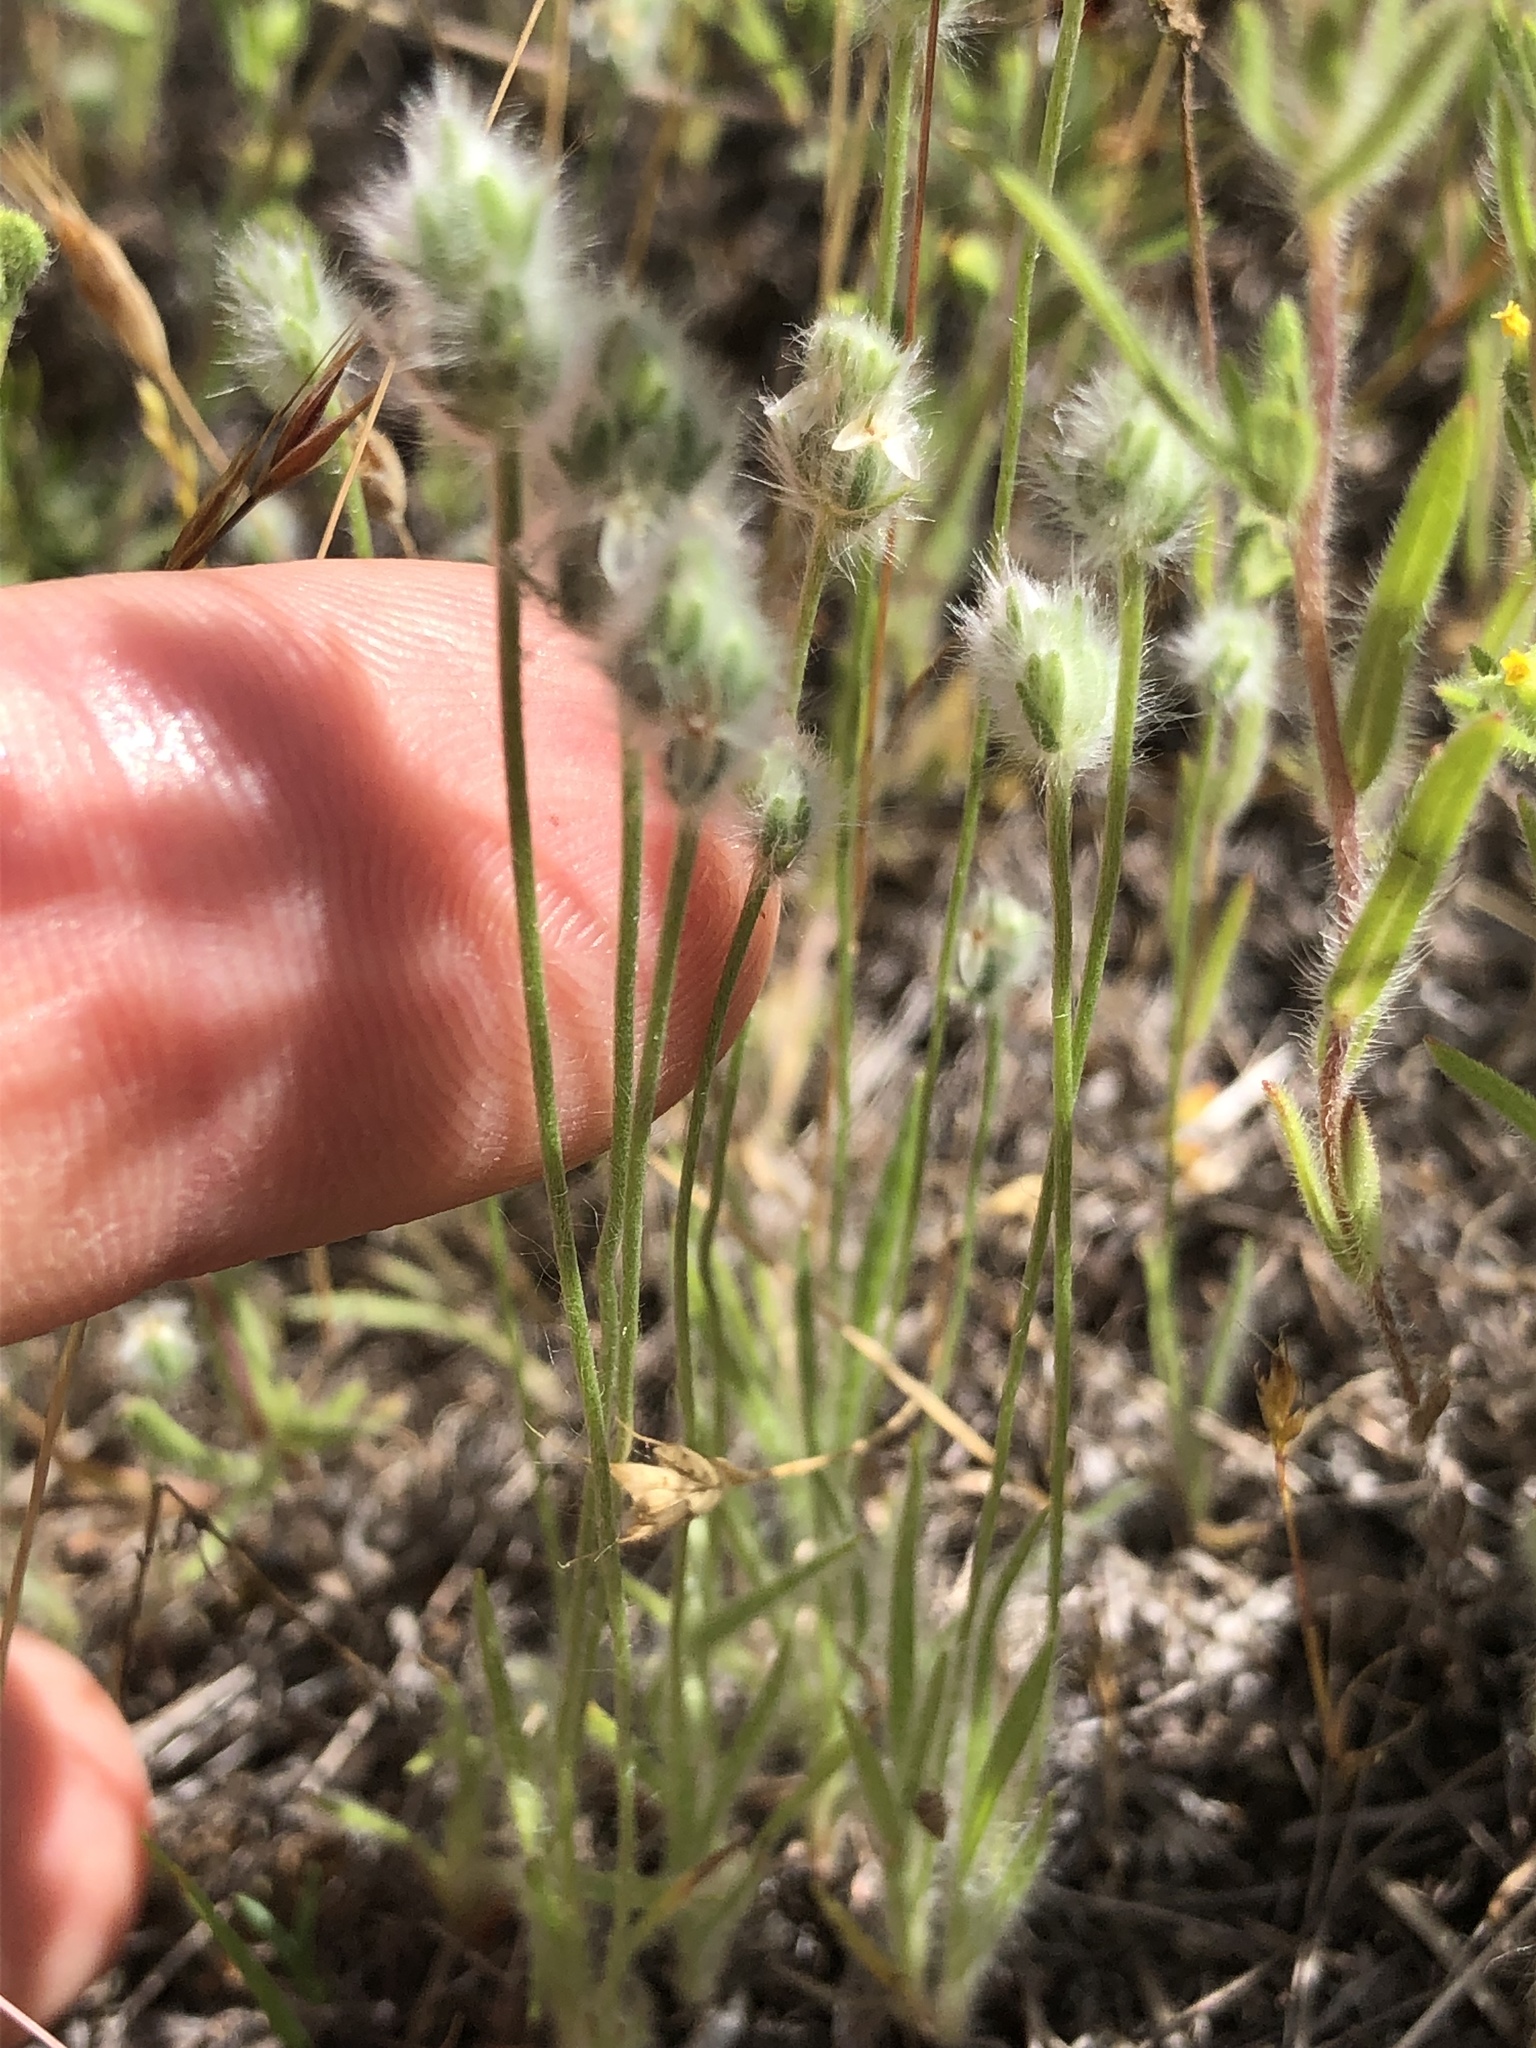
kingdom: Plantae
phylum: Tracheophyta
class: Magnoliopsida
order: Lamiales
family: Plantaginaceae
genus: Plantago
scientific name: Plantago patagonica
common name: Patagonia indian-wheat
